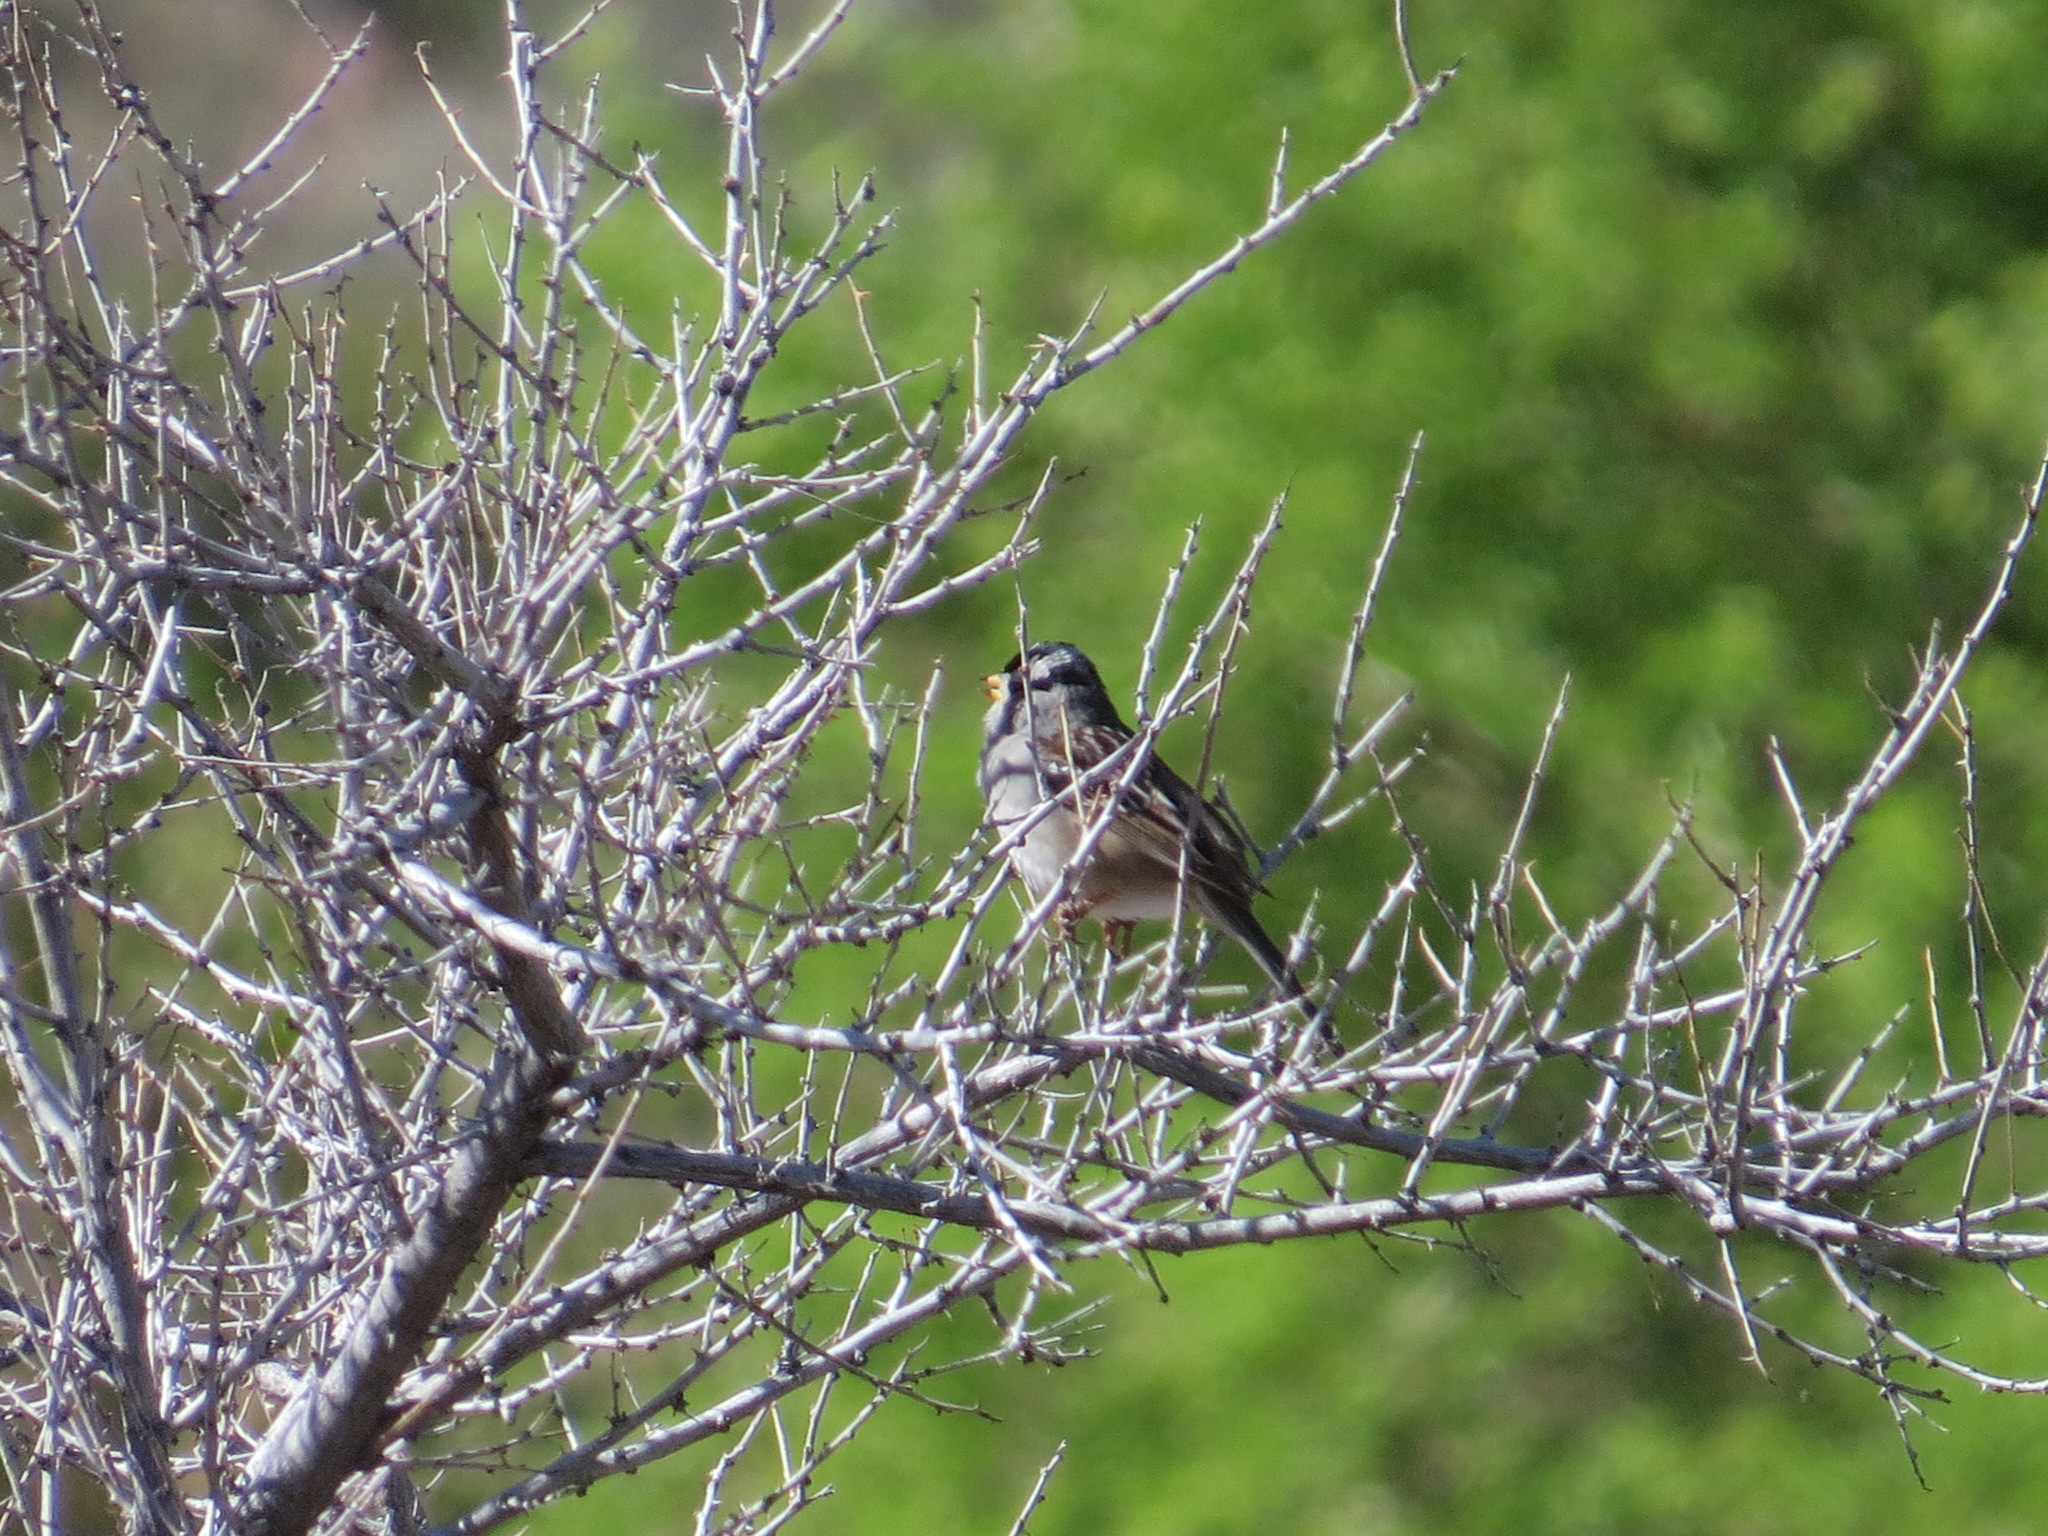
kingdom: Animalia
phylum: Chordata
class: Aves
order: Passeriformes
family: Passerellidae
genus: Zonotrichia
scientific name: Zonotrichia leucophrys
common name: White-crowned sparrow
